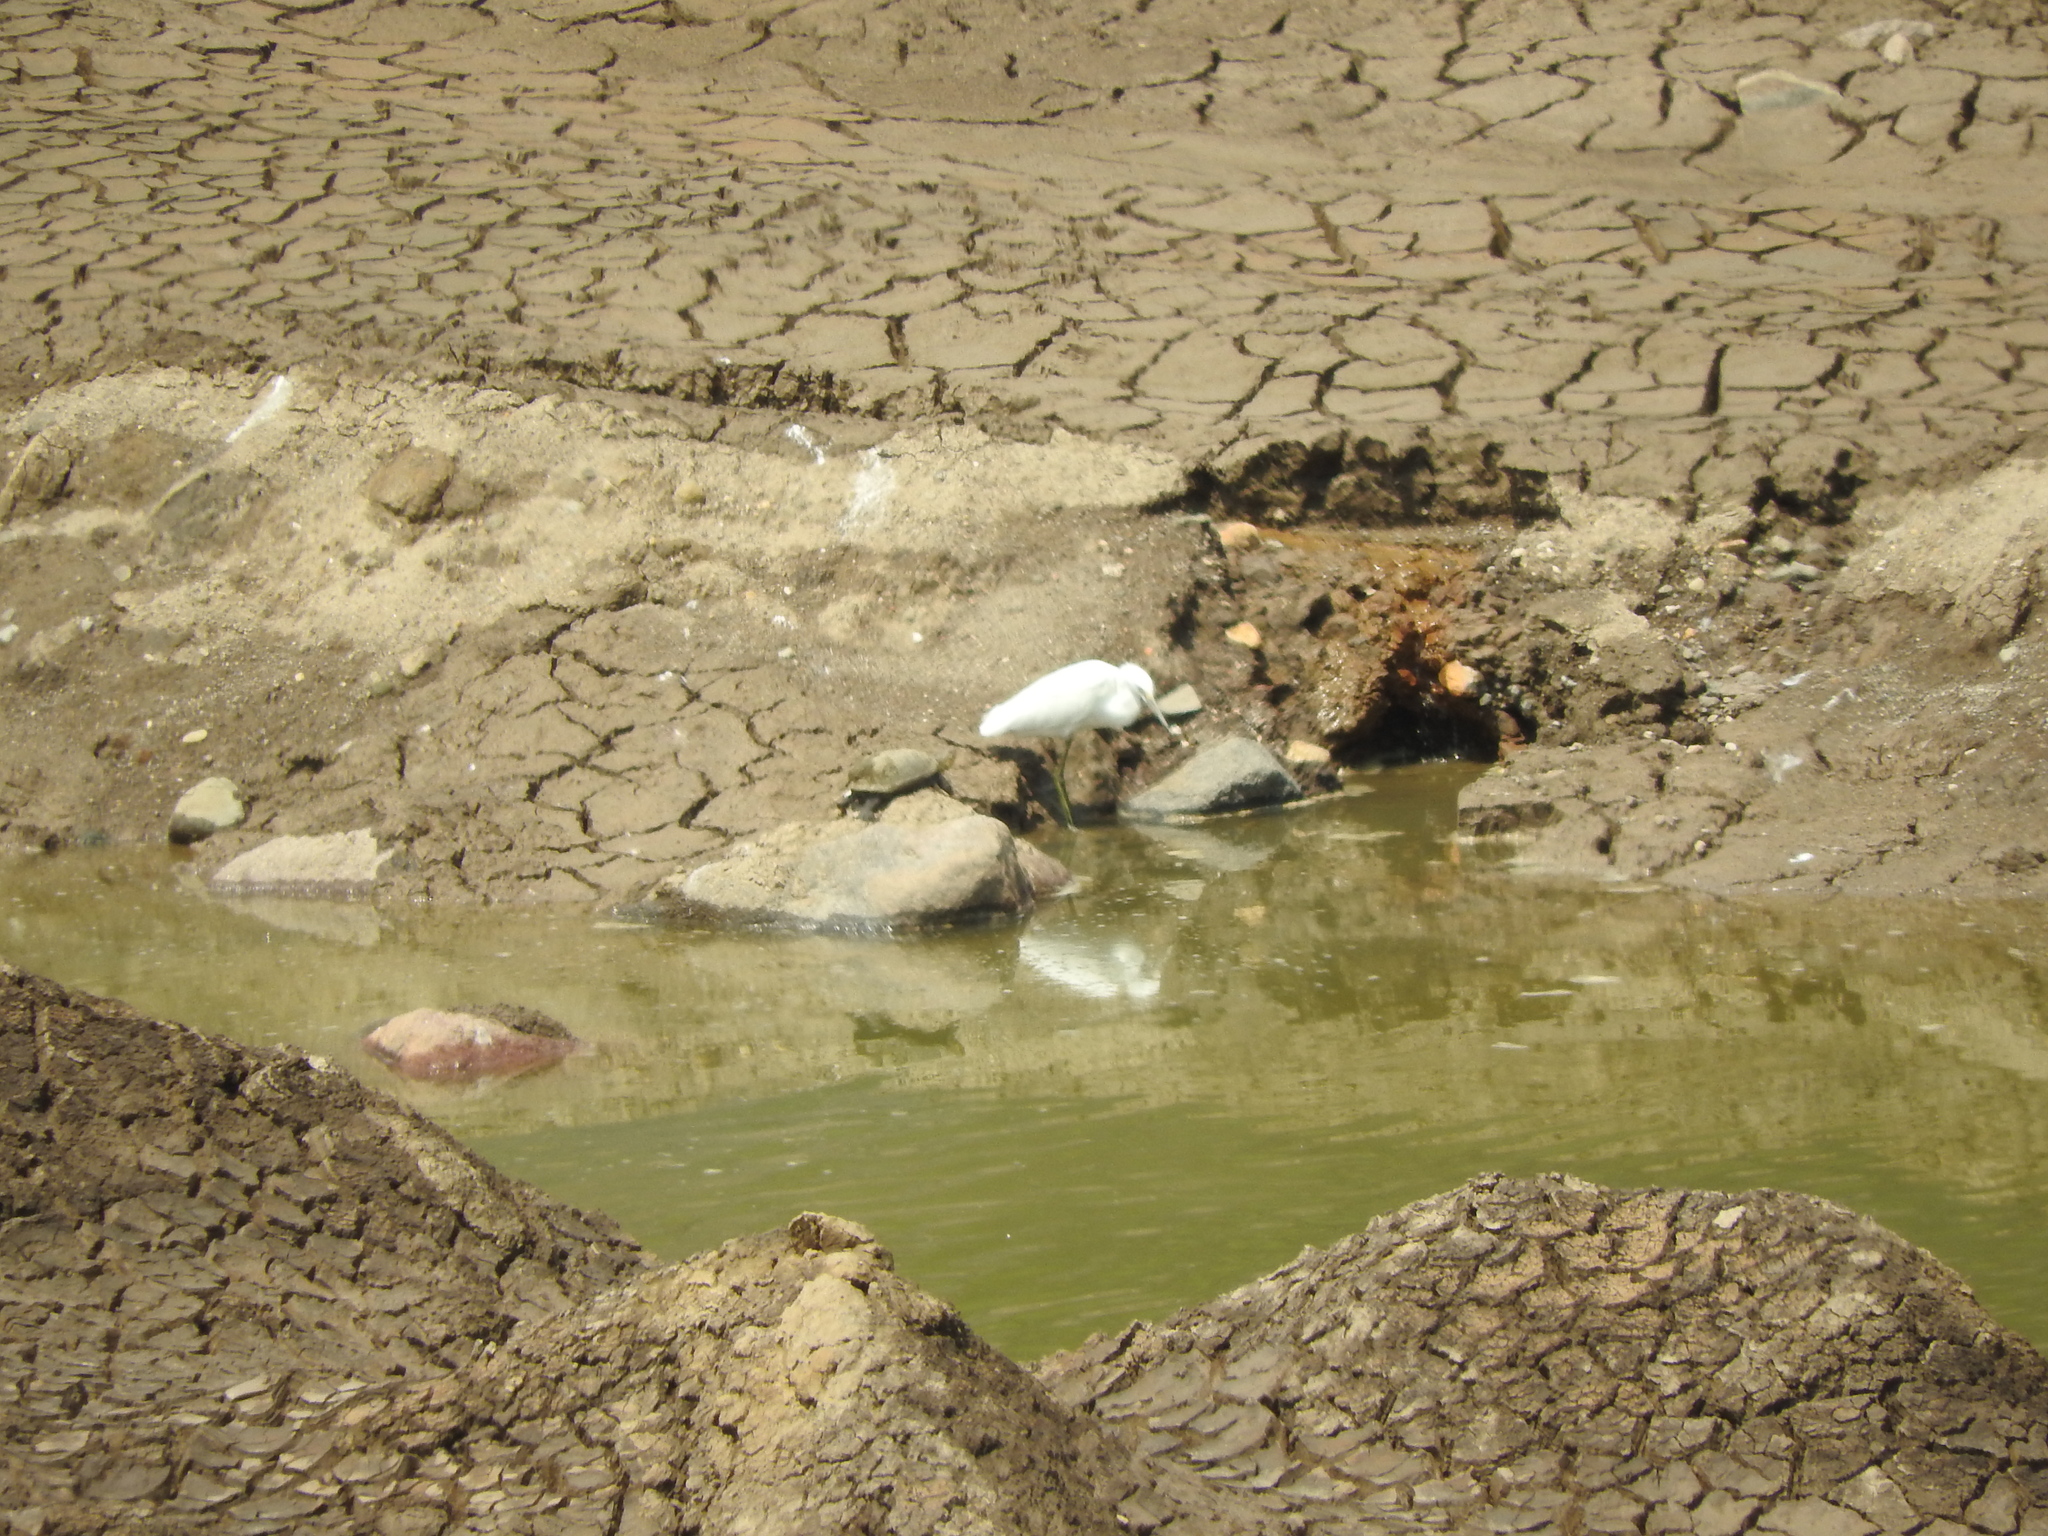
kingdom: Animalia
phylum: Chordata
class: Aves
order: Pelecaniformes
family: Ardeidae
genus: Egretta
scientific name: Egretta thula
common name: Snowy egret
